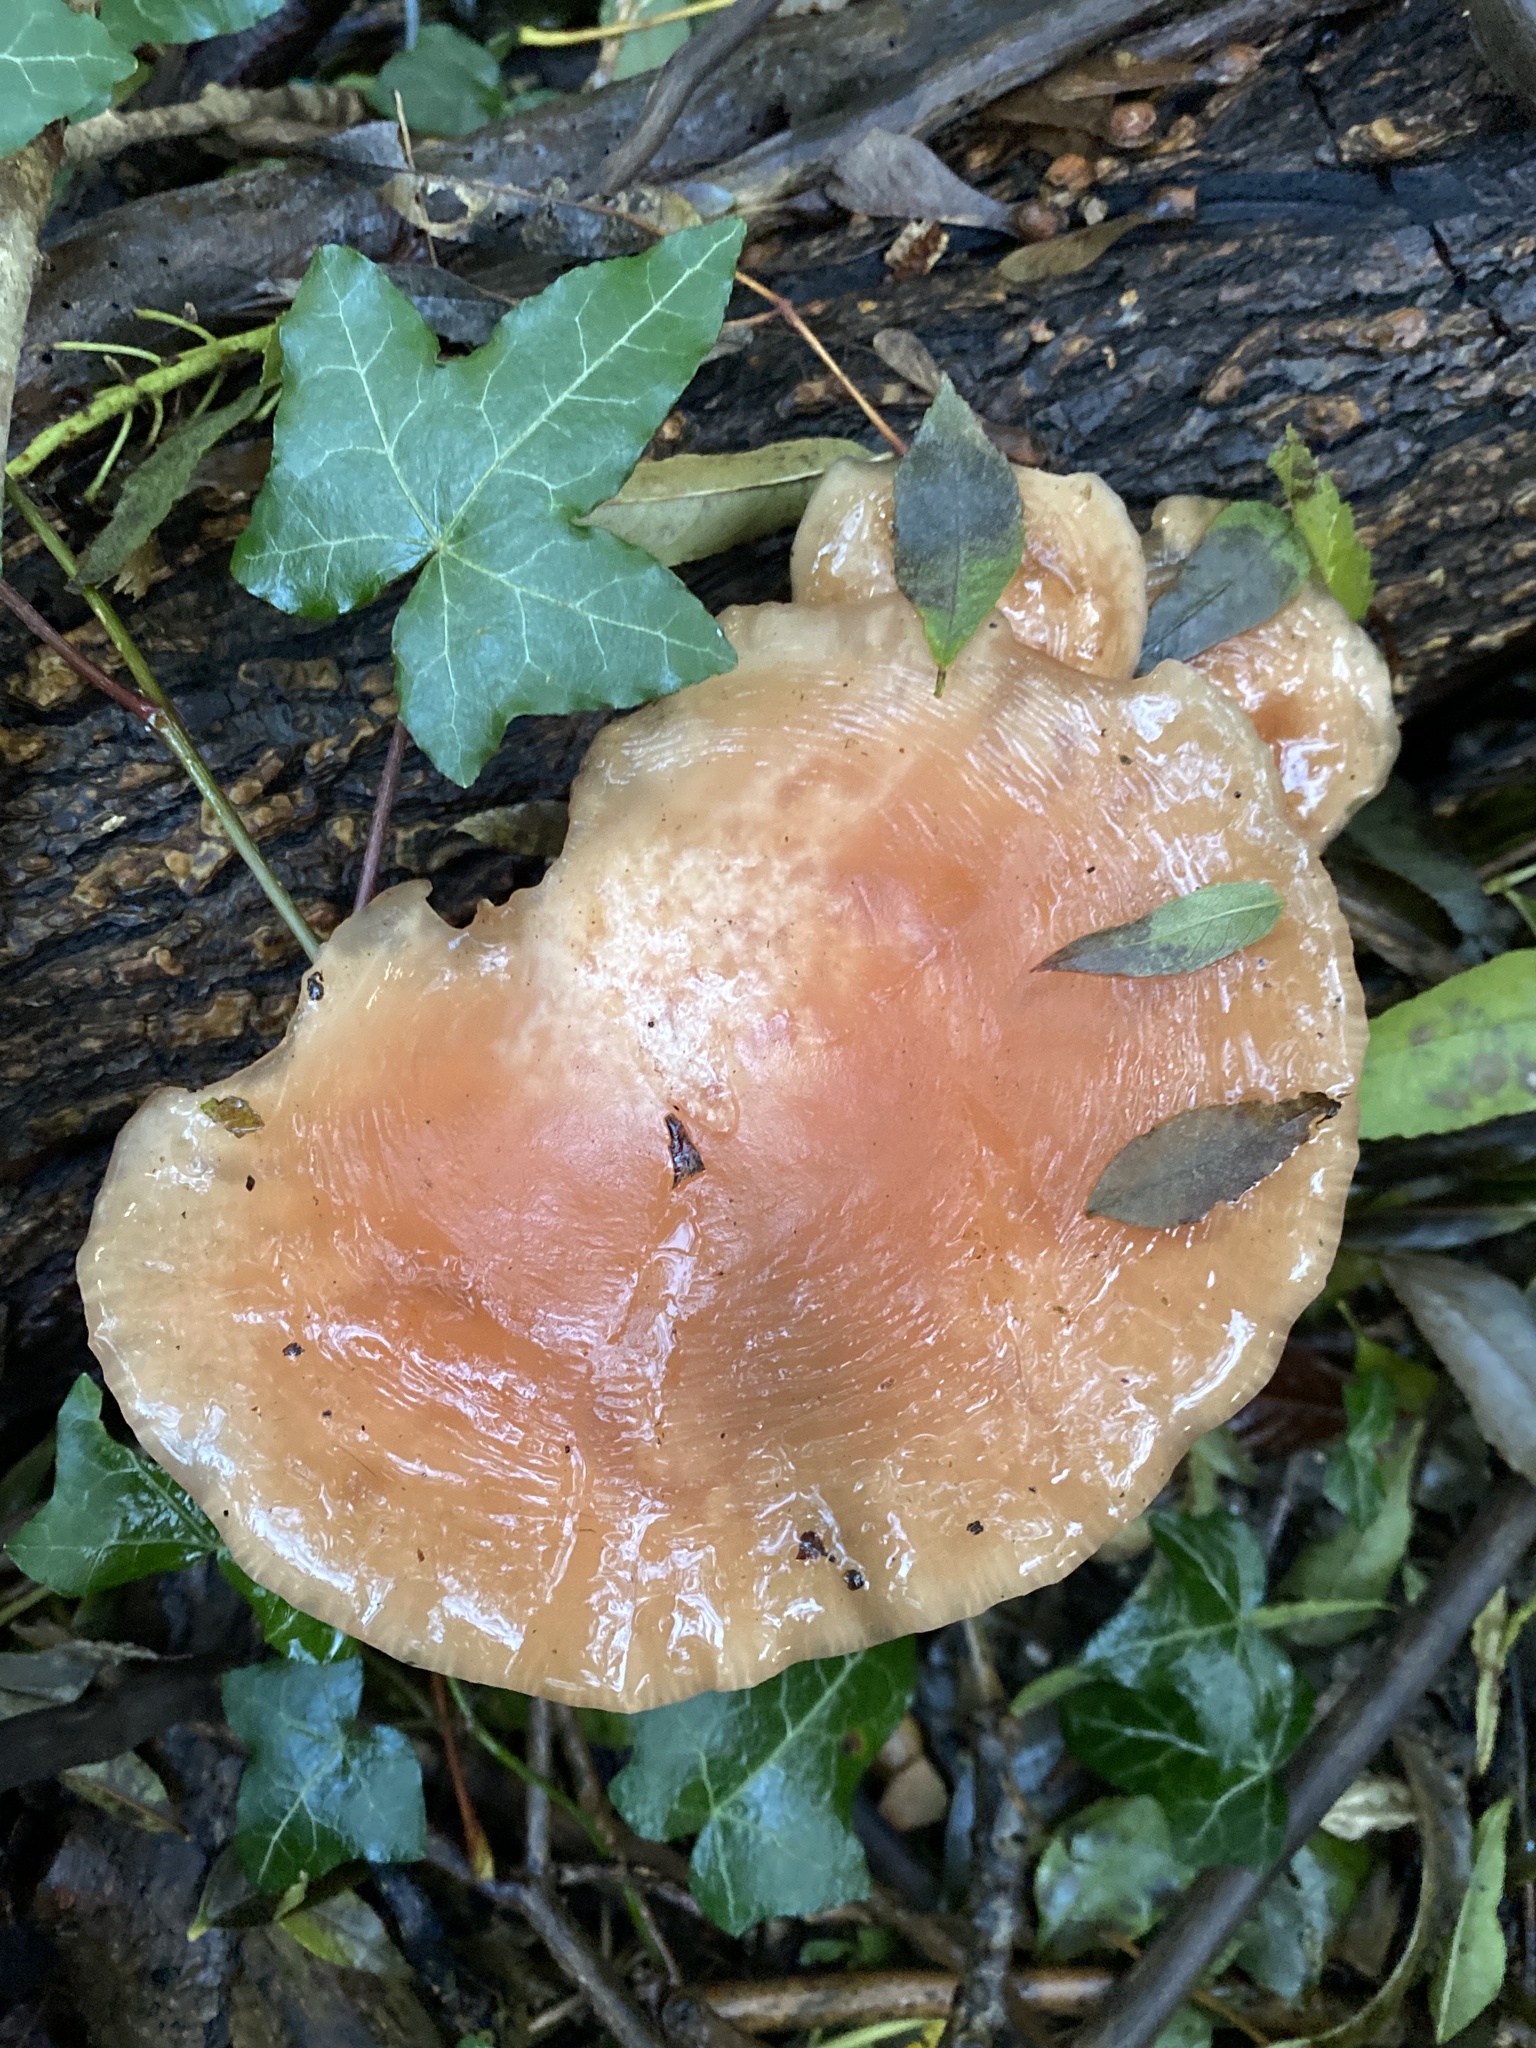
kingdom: Fungi
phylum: Basidiomycota
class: Agaricomycetes
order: Agaricales
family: Physalacriaceae
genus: Rhodotus
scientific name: Rhodotus palmatus
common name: Wrinkled peach
